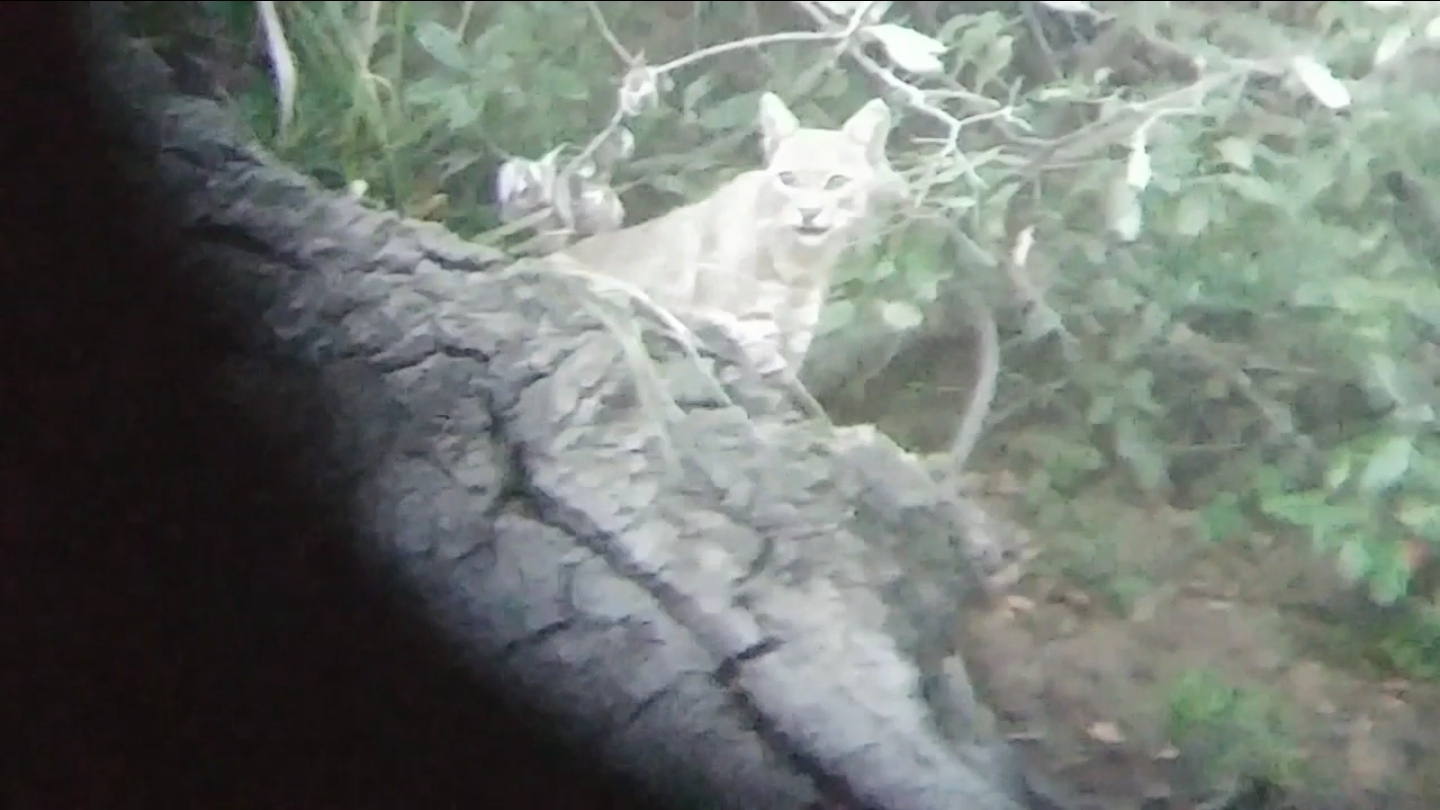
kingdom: Animalia
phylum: Chordata
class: Mammalia
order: Carnivora
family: Felidae
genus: Lynx
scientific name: Lynx rufus
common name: Bobcat
